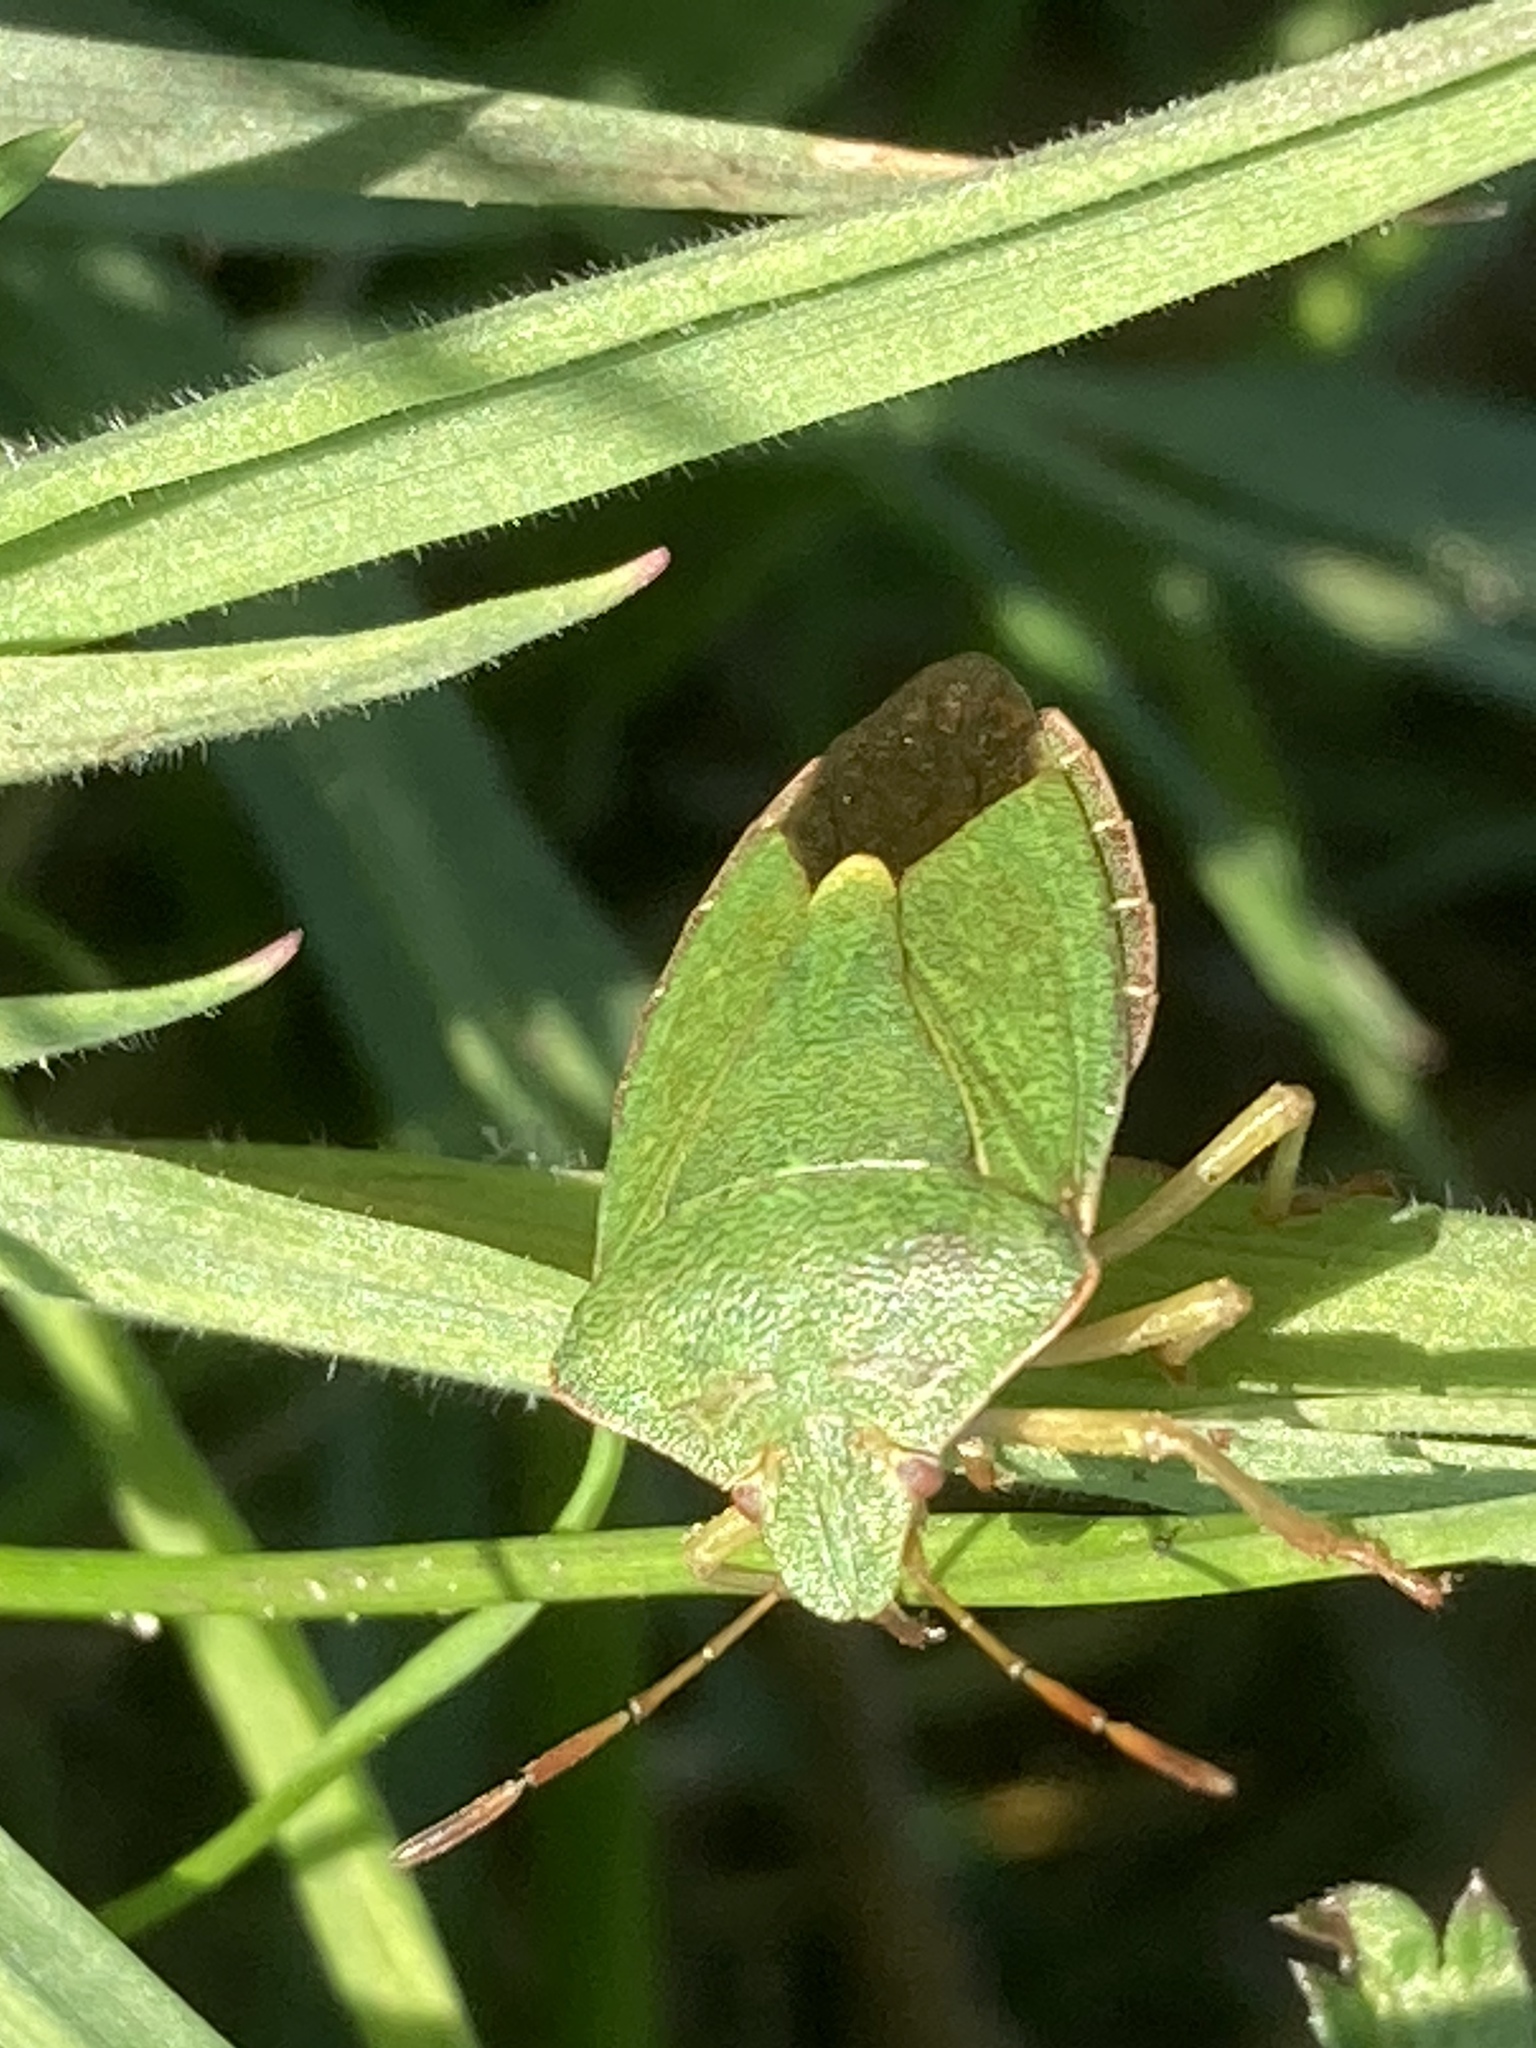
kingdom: Animalia
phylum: Arthropoda
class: Insecta
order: Hemiptera
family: Pentatomidae
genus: Palomena
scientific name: Palomena prasina
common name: Green shieldbug
